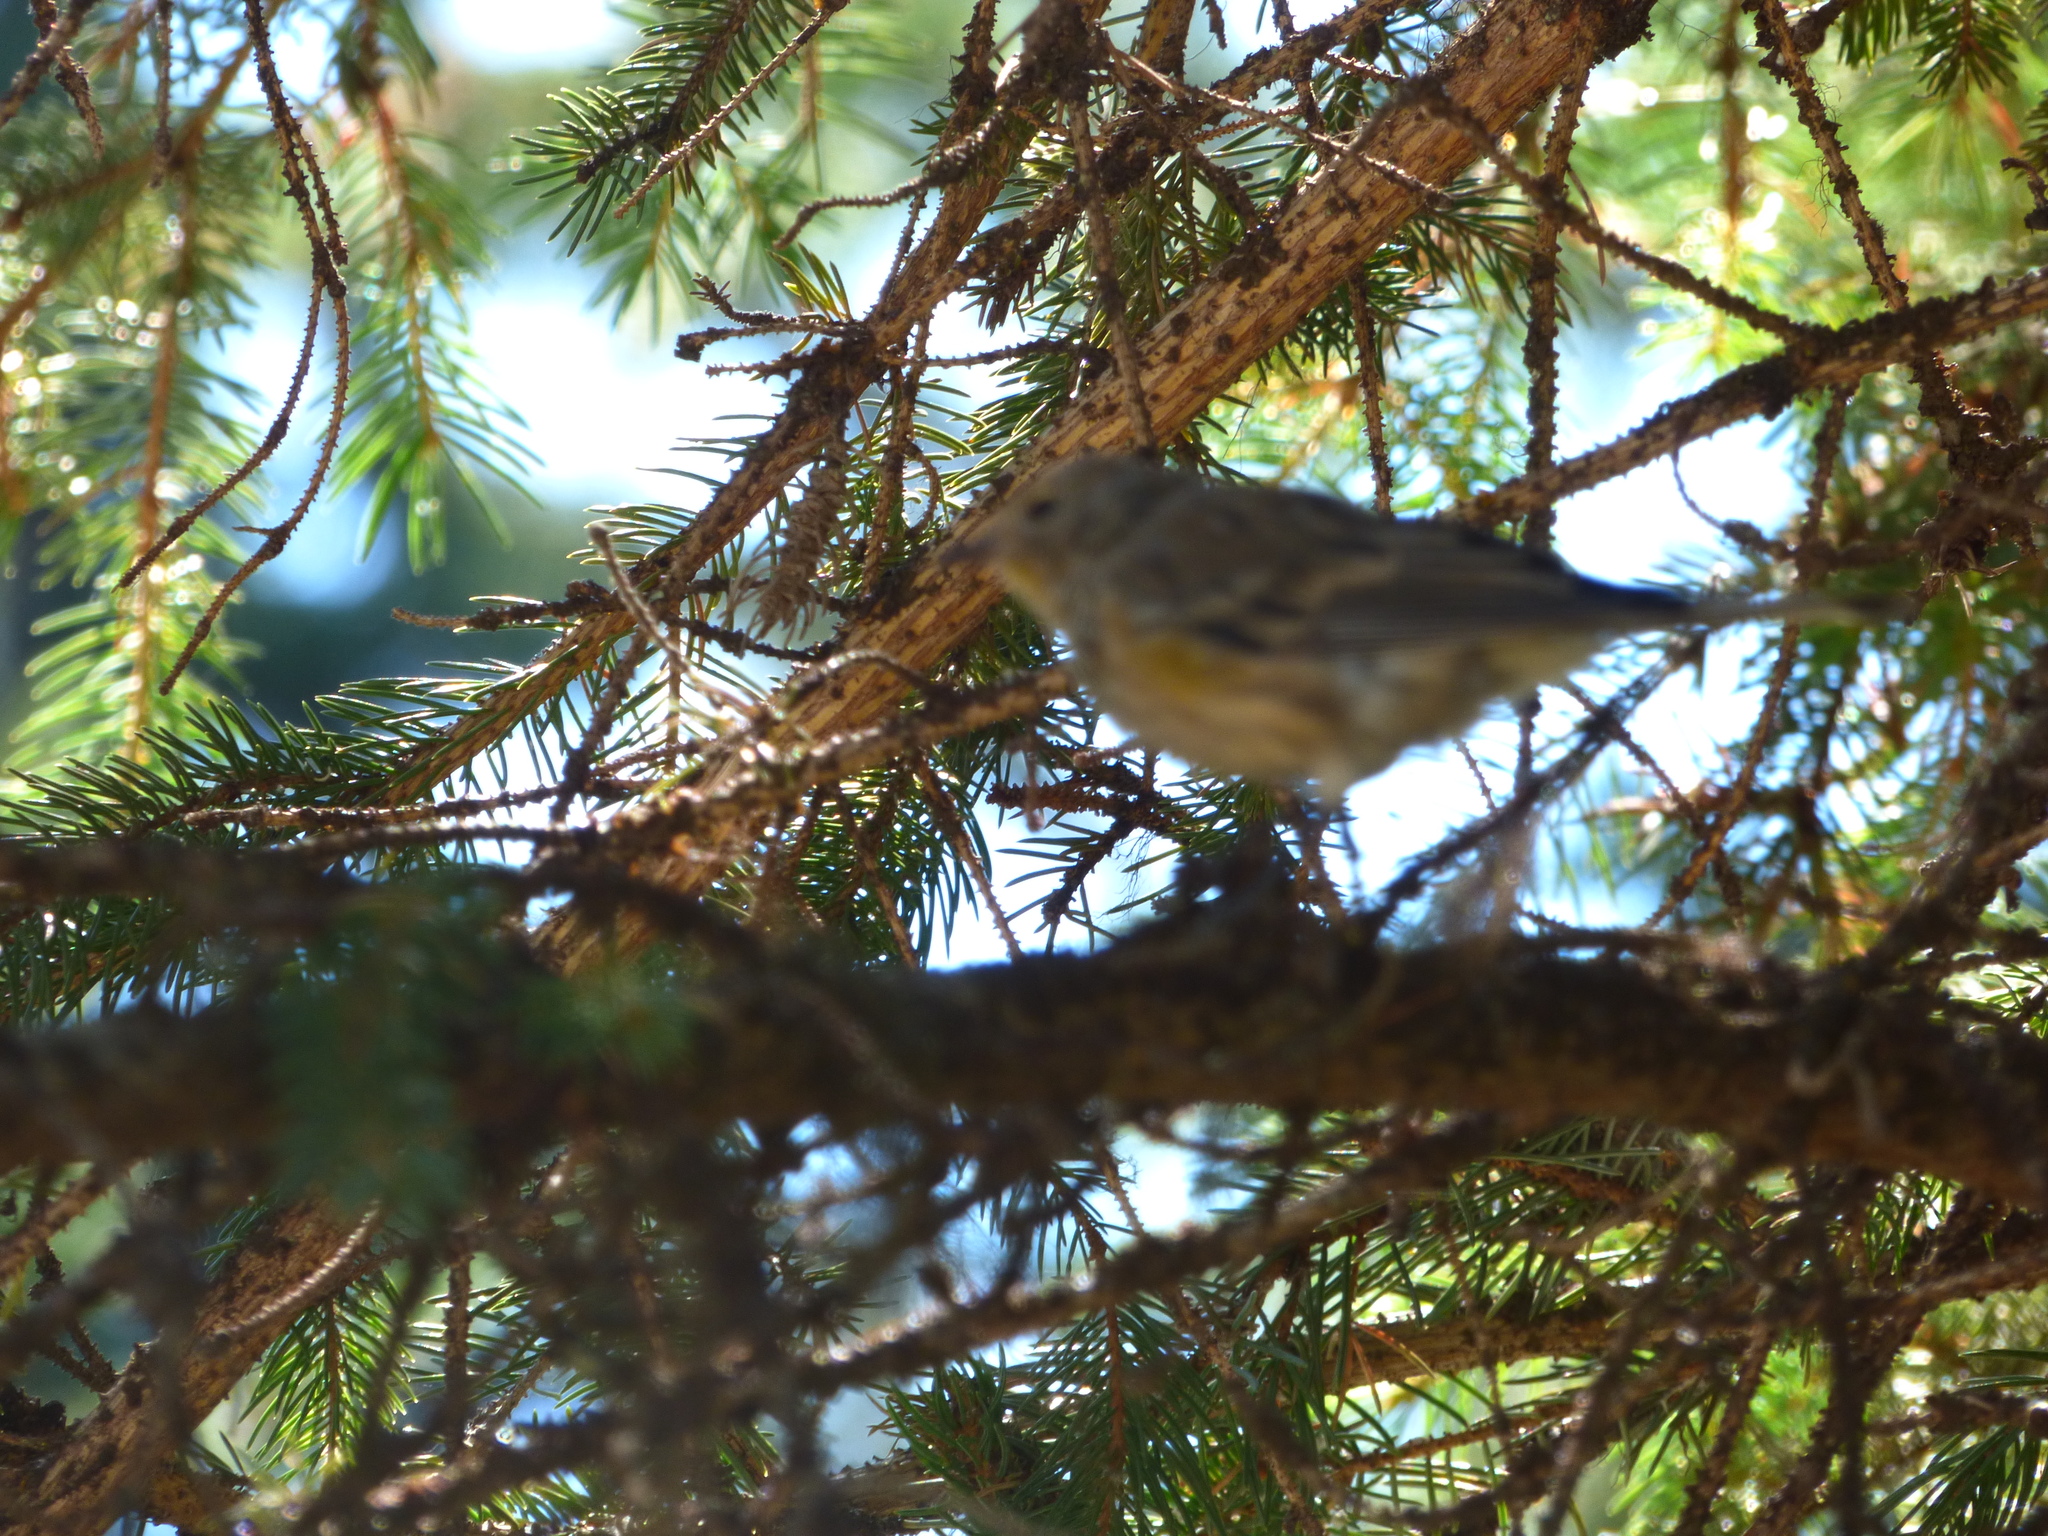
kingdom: Animalia
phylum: Chordata
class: Aves
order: Passeriformes
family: Parulidae
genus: Setophaga
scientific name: Setophaga coronata
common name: Myrtle warbler
